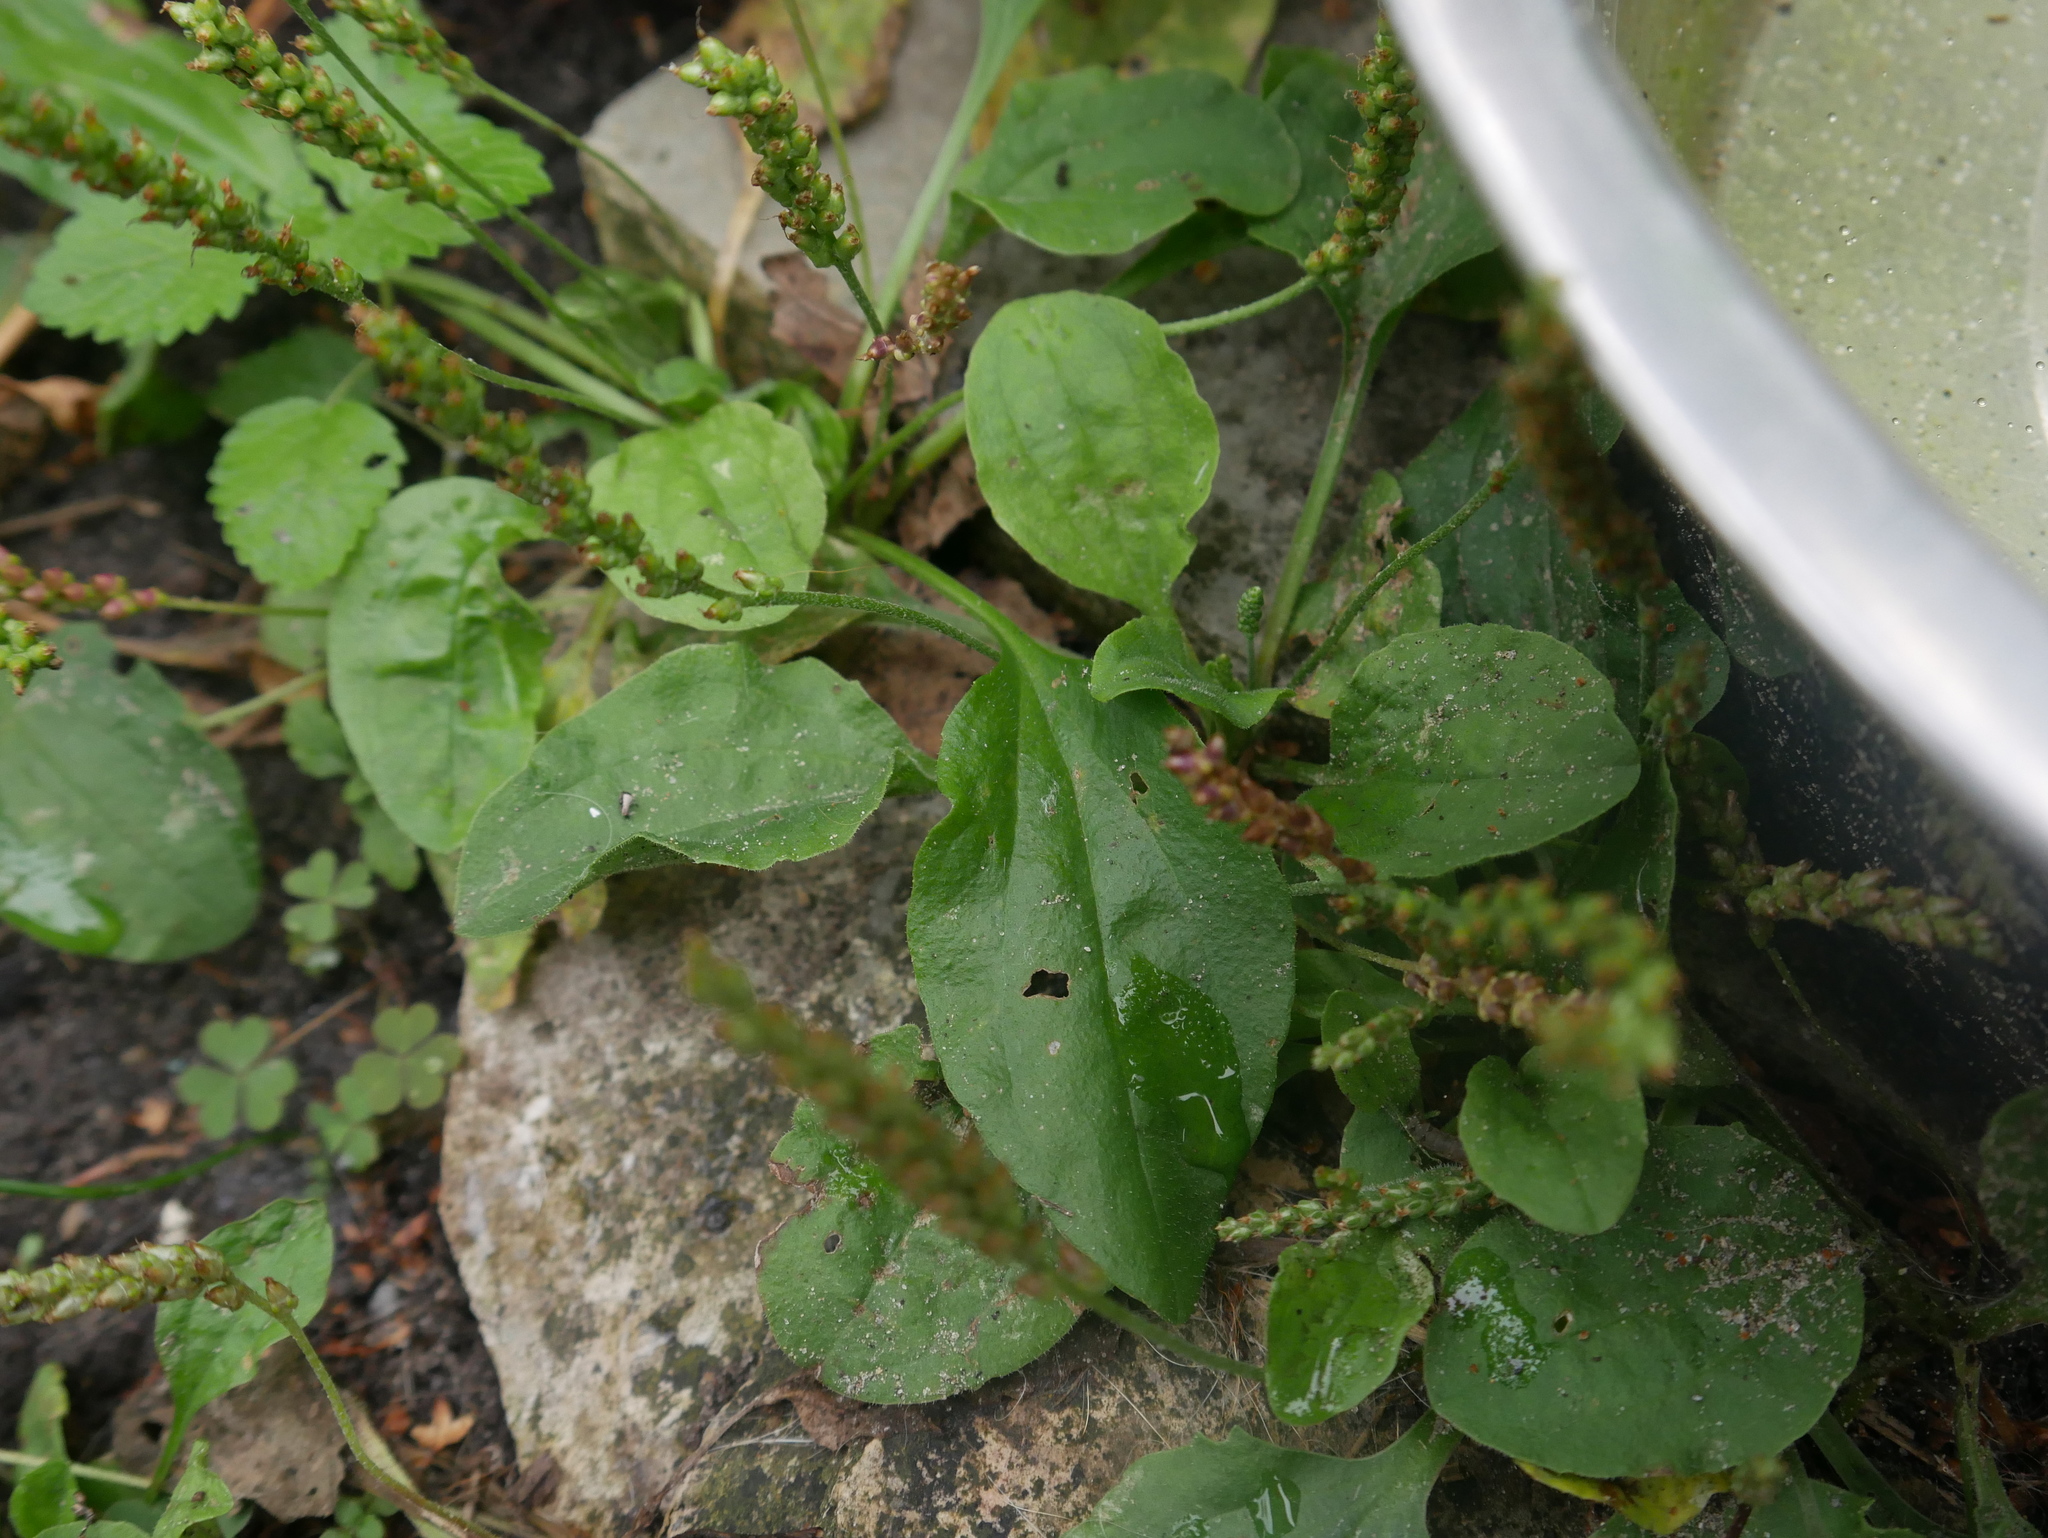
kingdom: Plantae
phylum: Tracheophyta
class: Magnoliopsida
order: Lamiales
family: Plantaginaceae
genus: Plantago
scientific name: Plantago major
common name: Common plantain
